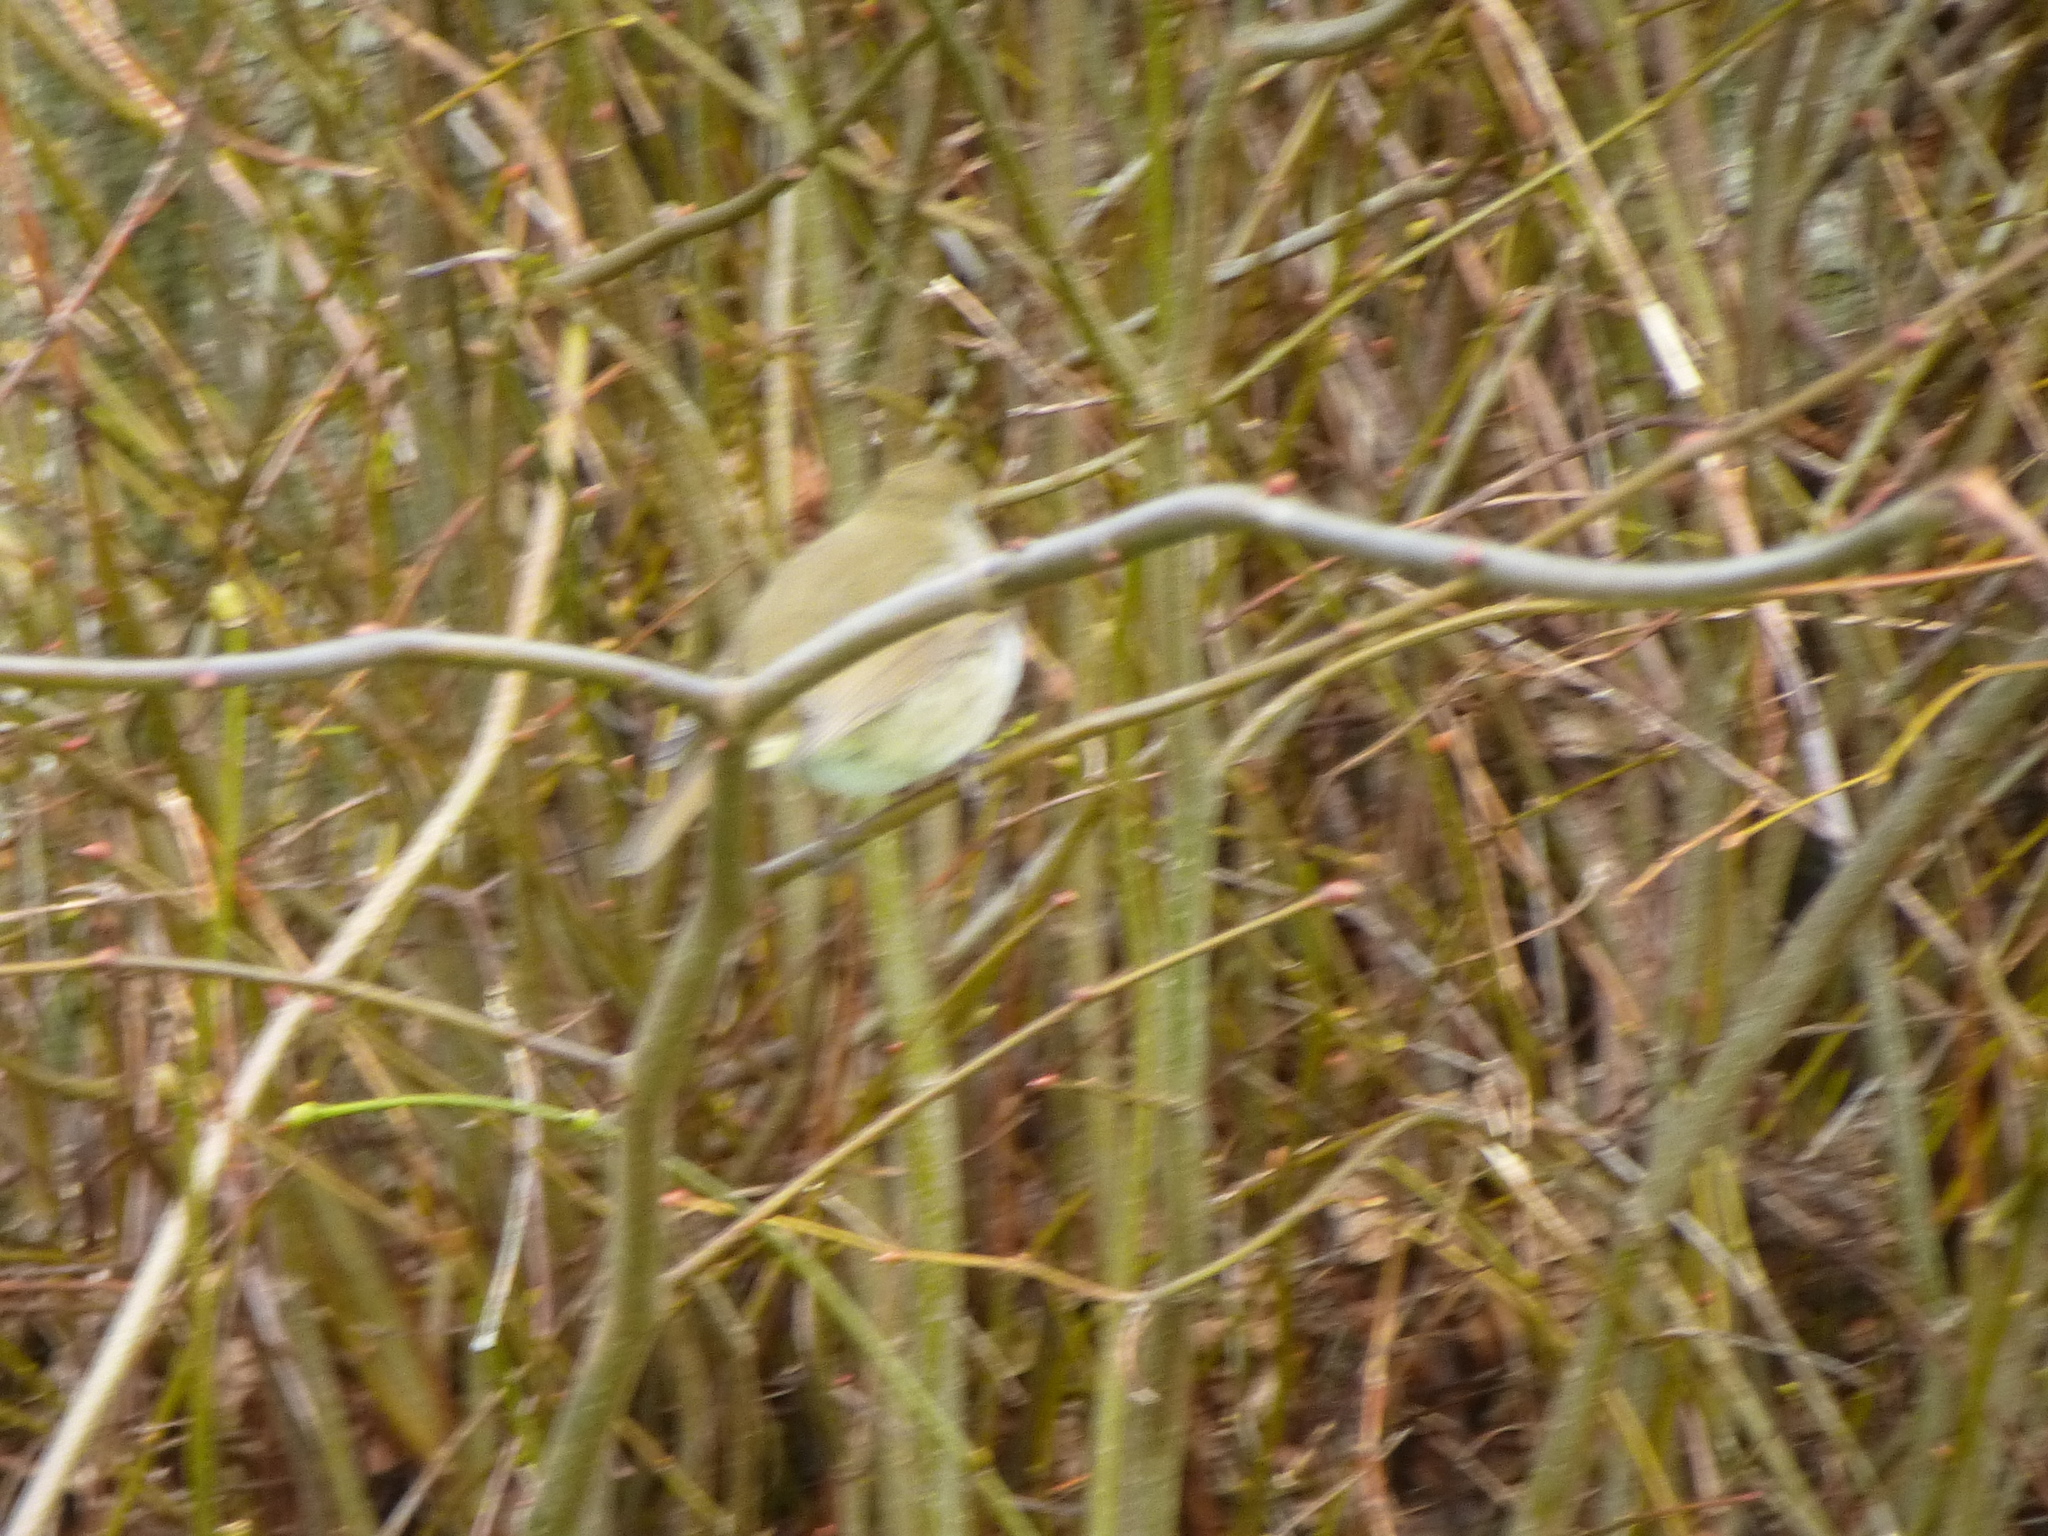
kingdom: Animalia
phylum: Chordata
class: Aves
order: Passeriformes
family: Muscicapidae
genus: Erithacus
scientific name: Erithacus rubecula
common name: European robin
